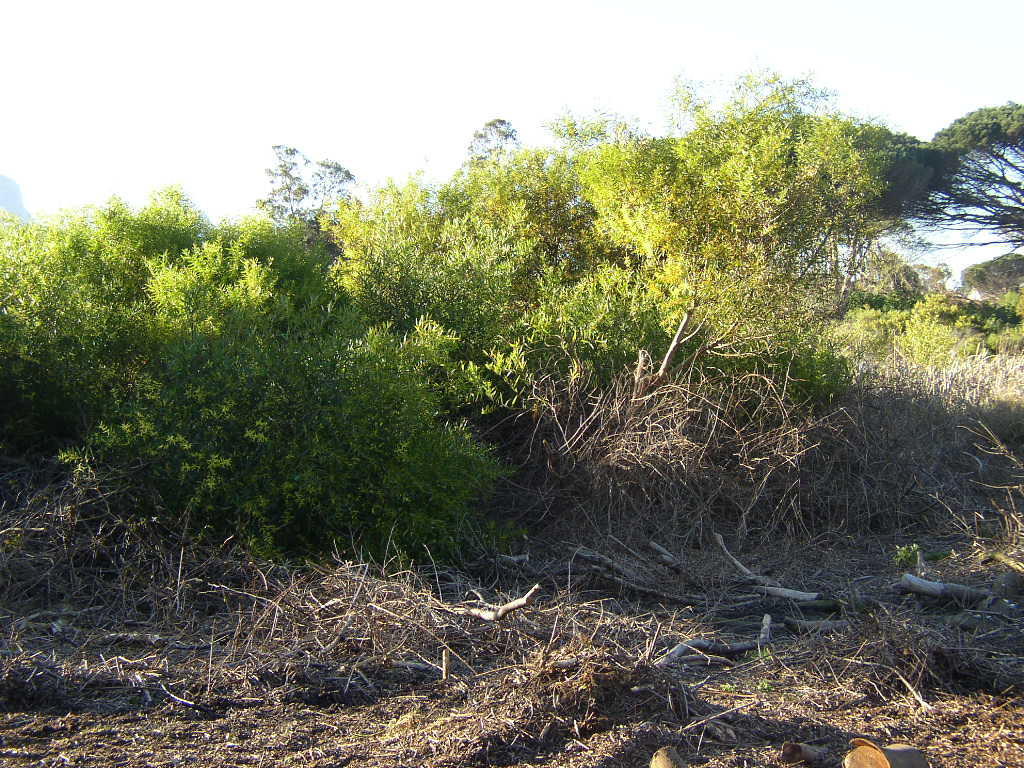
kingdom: Plantae
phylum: Tracheophyta
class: Magnoliopsida
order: Fabales
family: Fabaceae
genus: Acacia
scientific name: Acacia longifolia
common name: Sydney golden wattle
